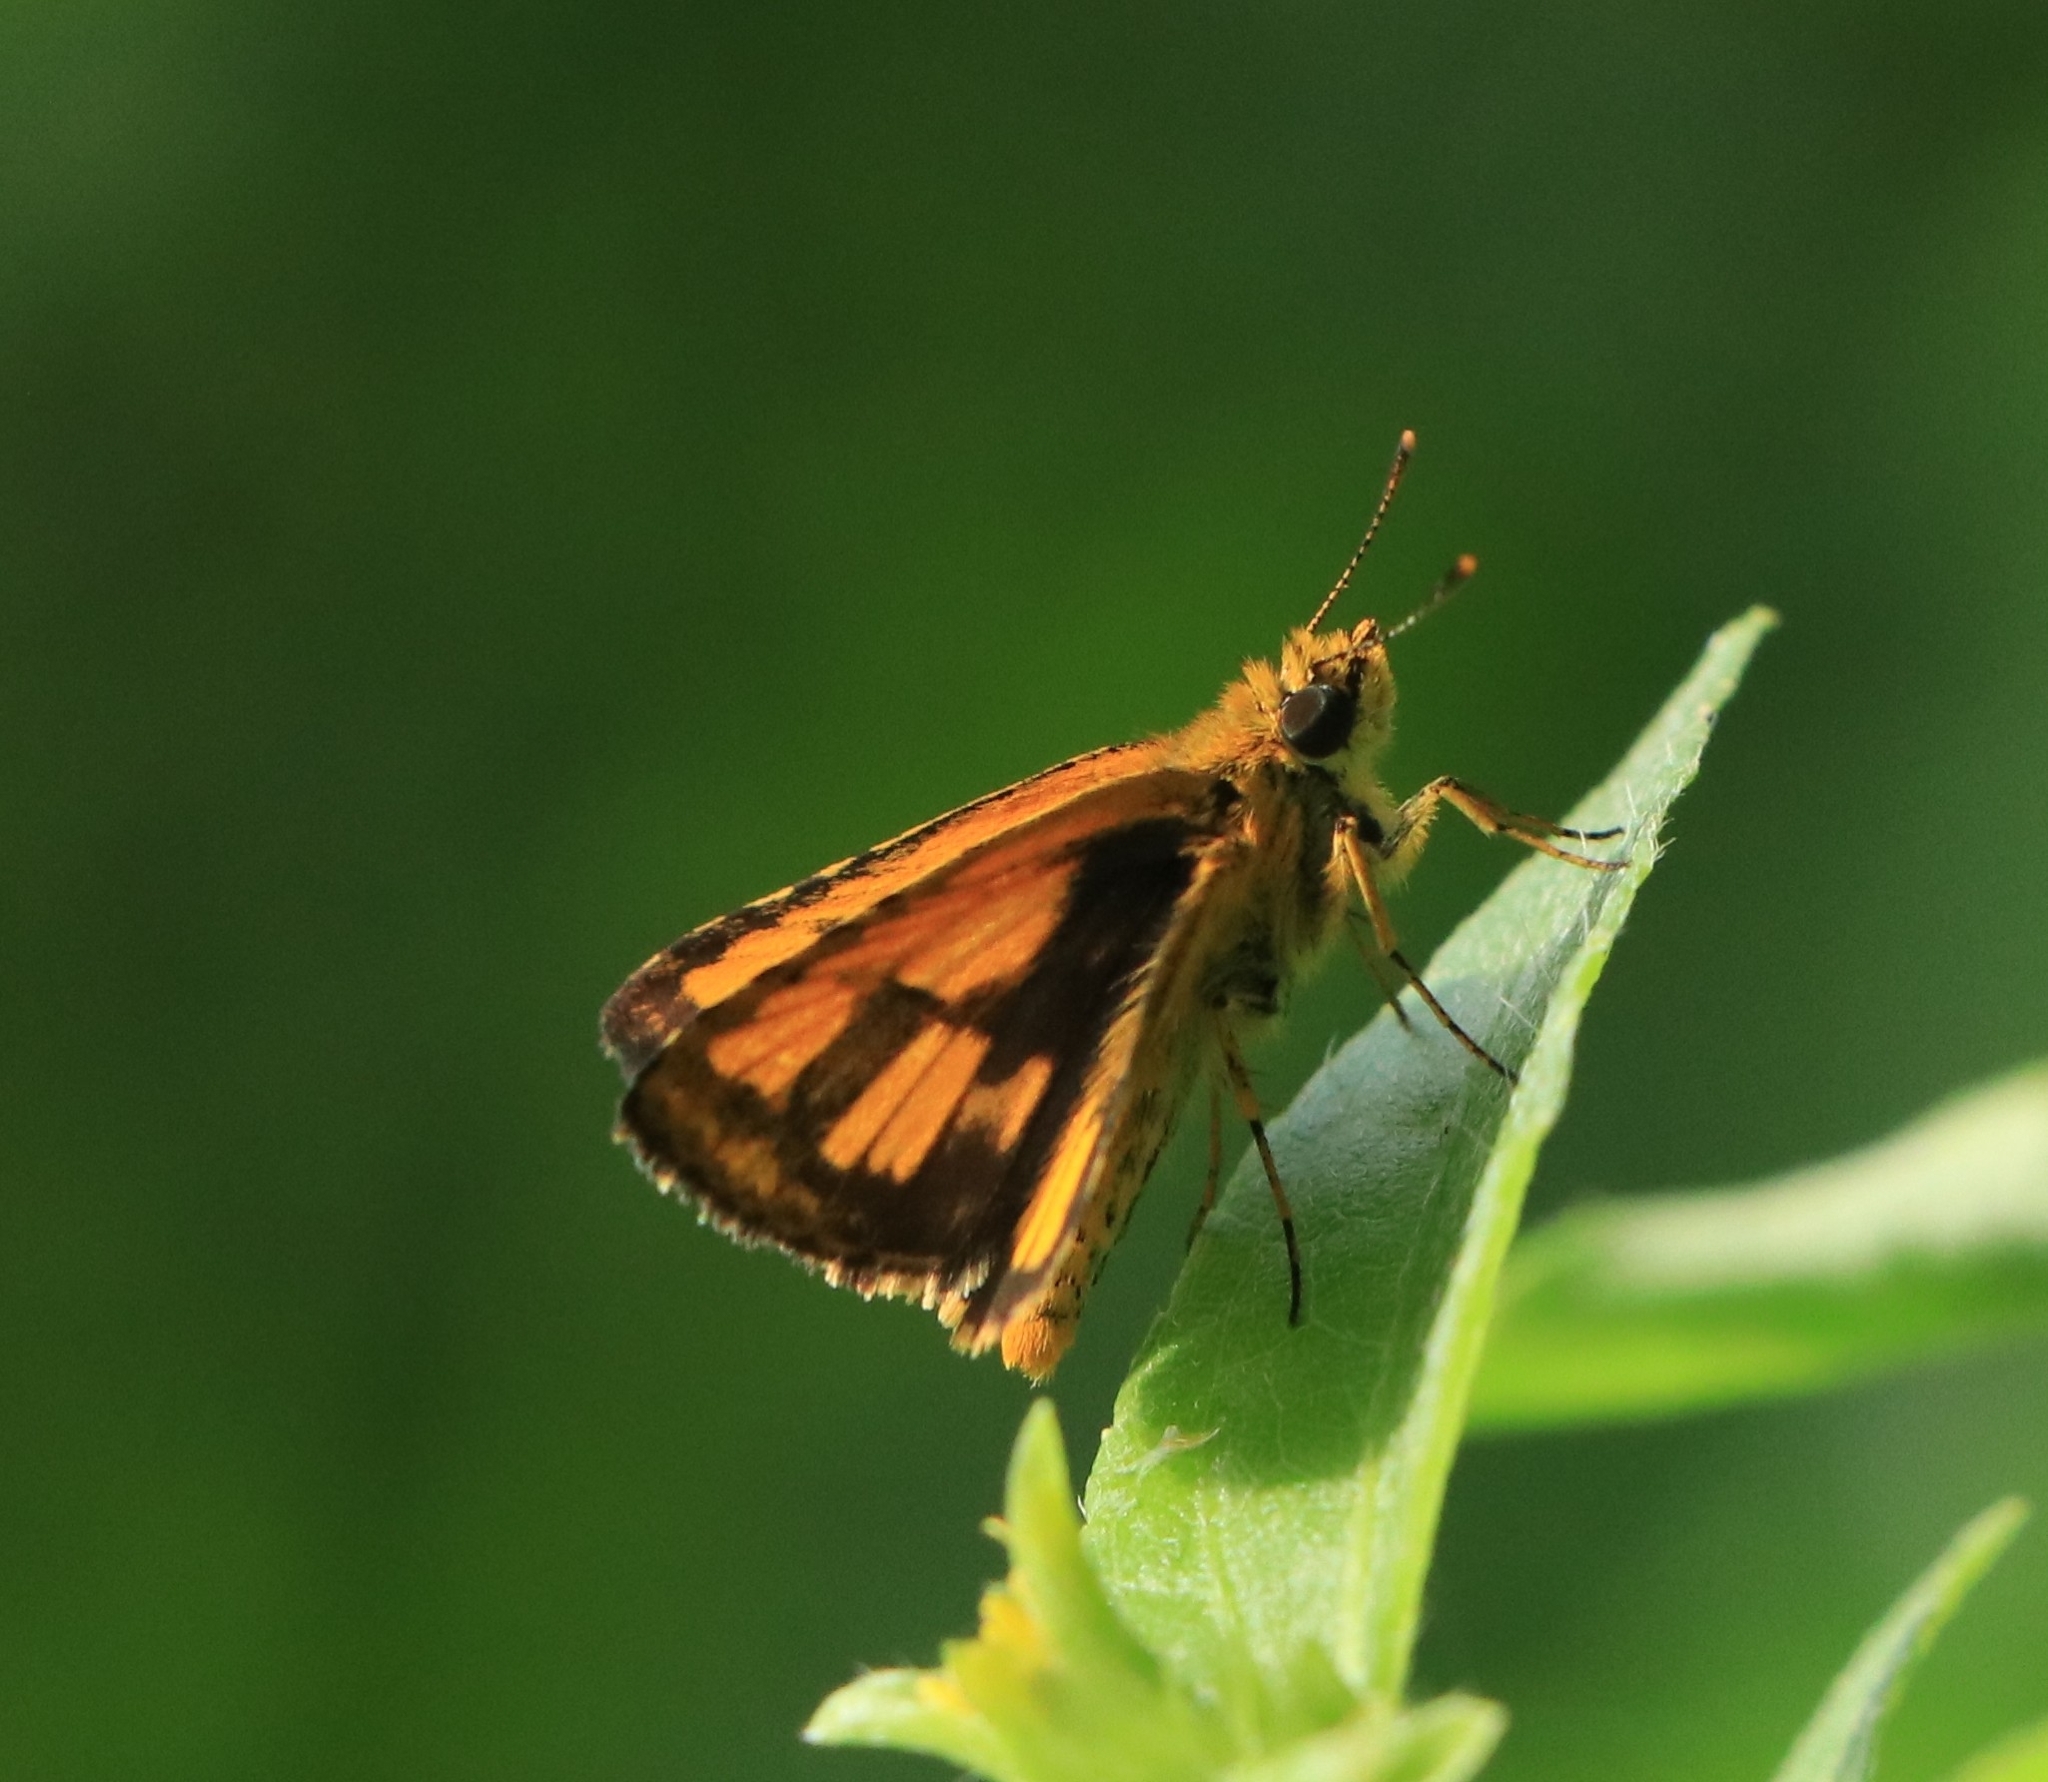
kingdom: Animalia
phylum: Arthropoda
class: Insecta
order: Lepidoptera
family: Hesperiidae
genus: Ampittia
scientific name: Ampittia dioscorides
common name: Common bush hopper
